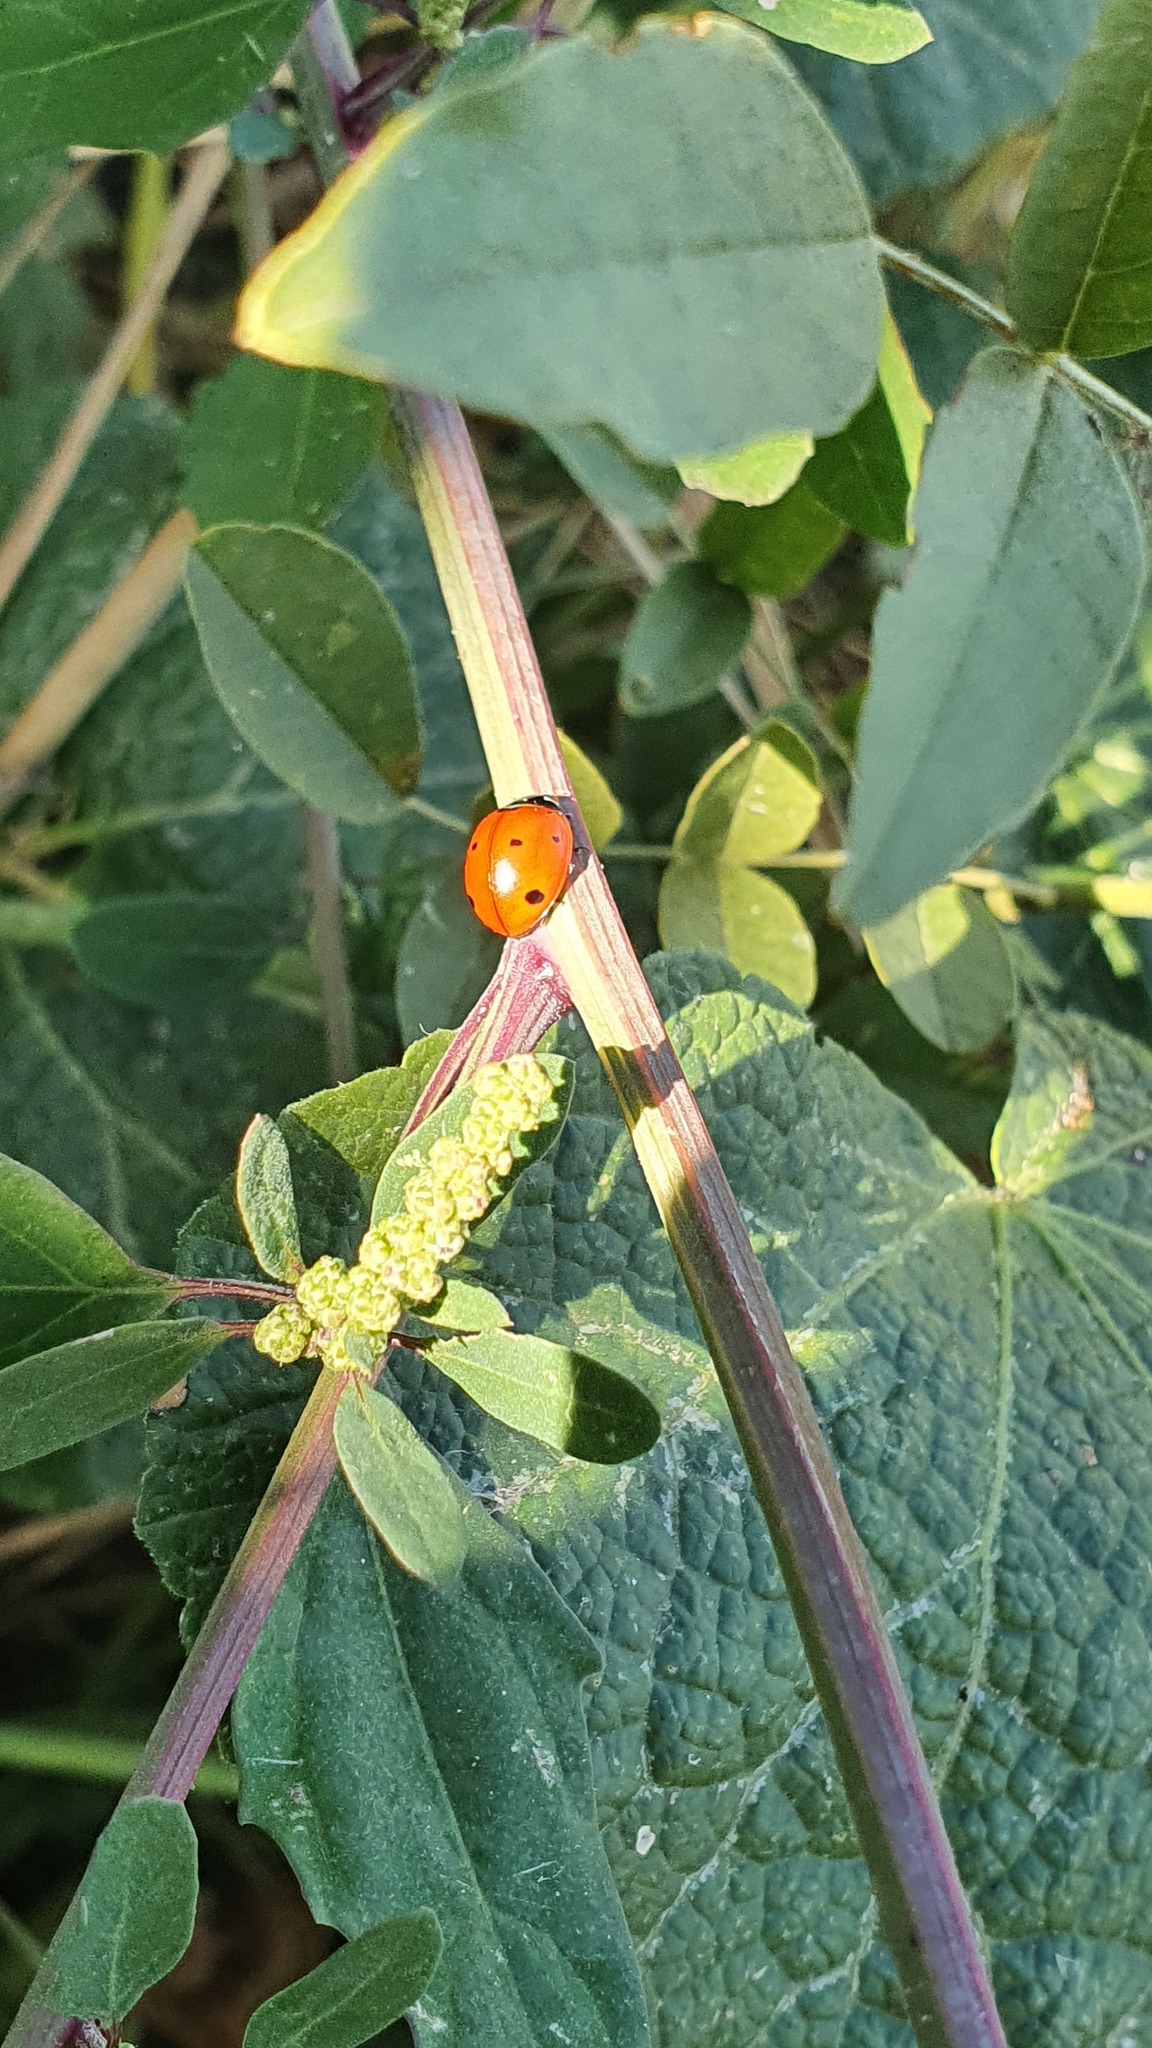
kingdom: Animalia
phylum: Arthropoda
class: Insecta
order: Coleoptera
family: Coccinellidae
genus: Coccinella
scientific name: Coccinella septempunctata
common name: Sevenspotted lady beetle
